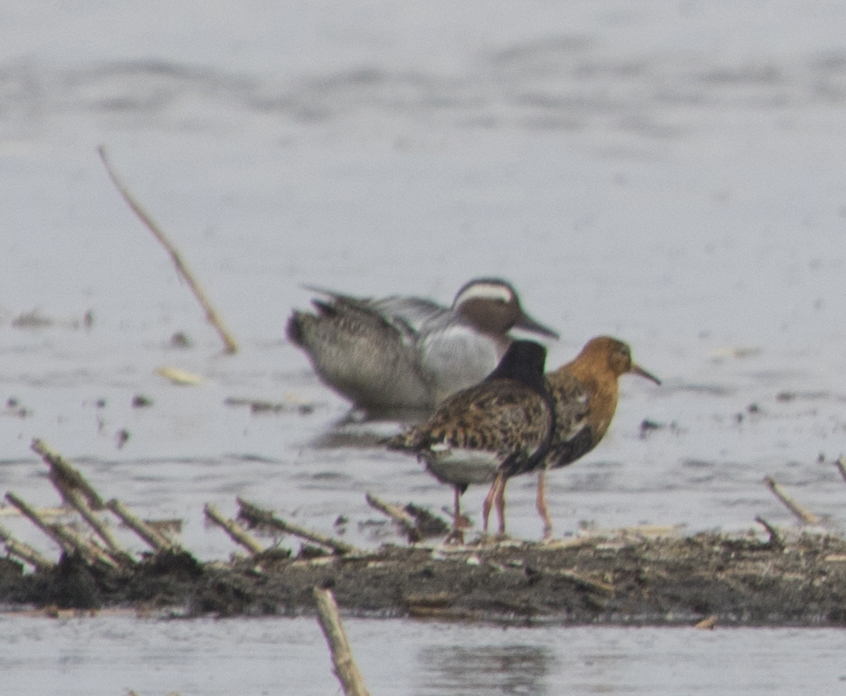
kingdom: Animalia
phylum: Chordata
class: Aves
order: Anseriformes
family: Anatidae
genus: Spatula
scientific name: Spatula querquedula
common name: Garganey
